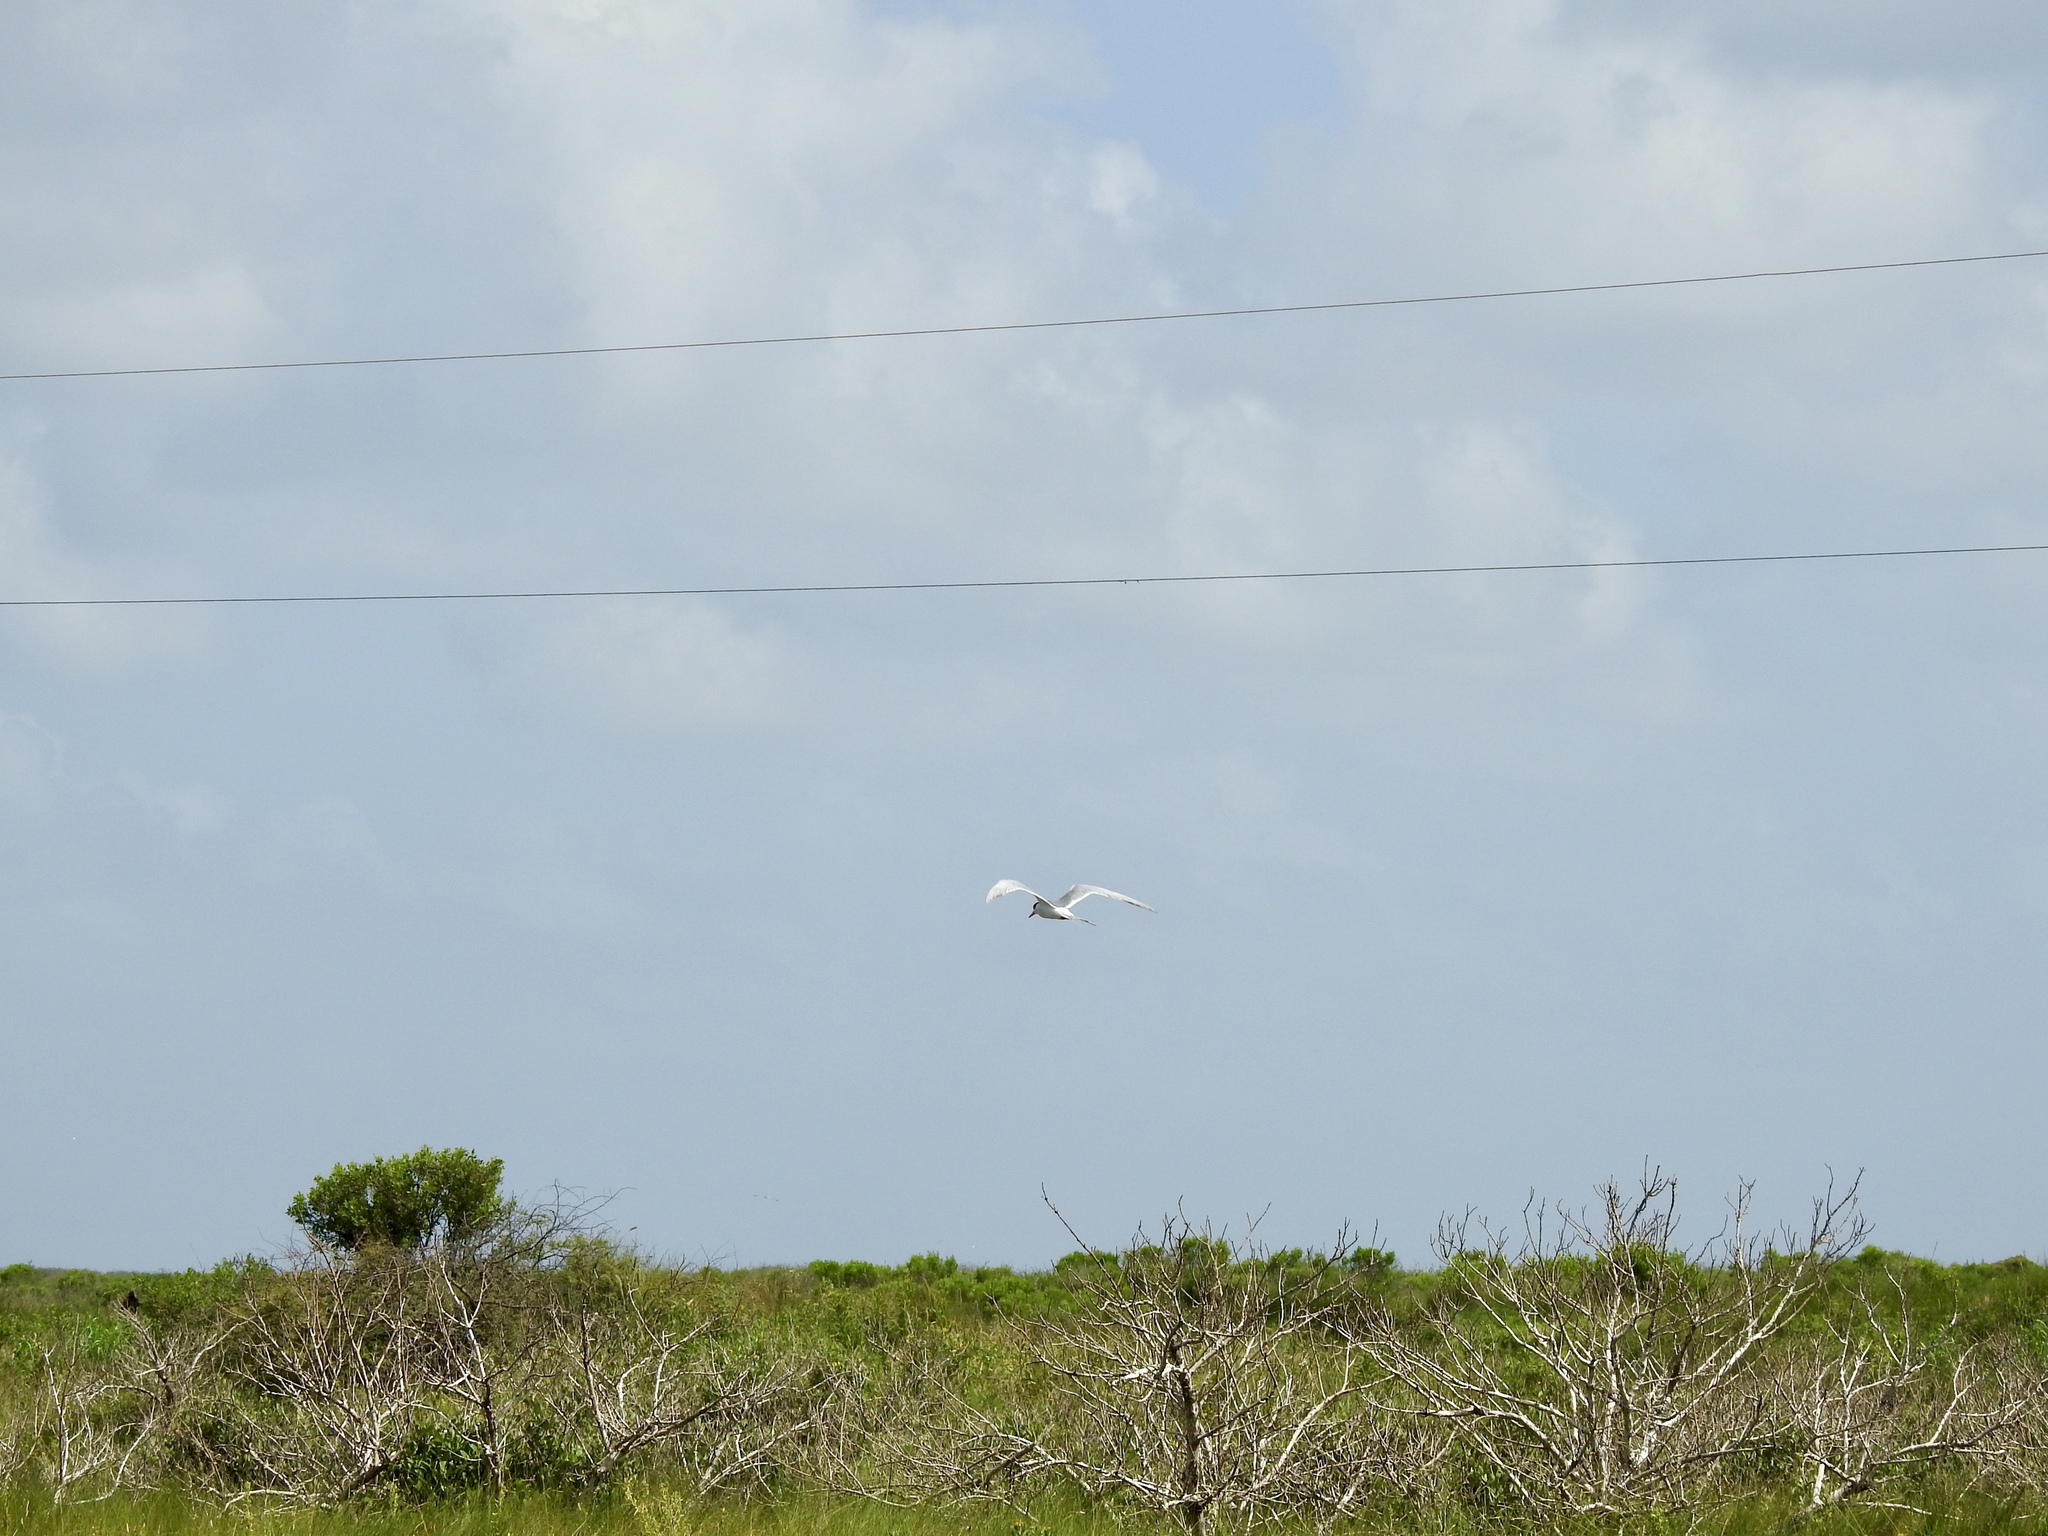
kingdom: Animalia
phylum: Chordata
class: Aves
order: Charadriiformes
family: Laridae
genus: Sterna
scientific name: Sterna forsteri
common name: Forster's tern
